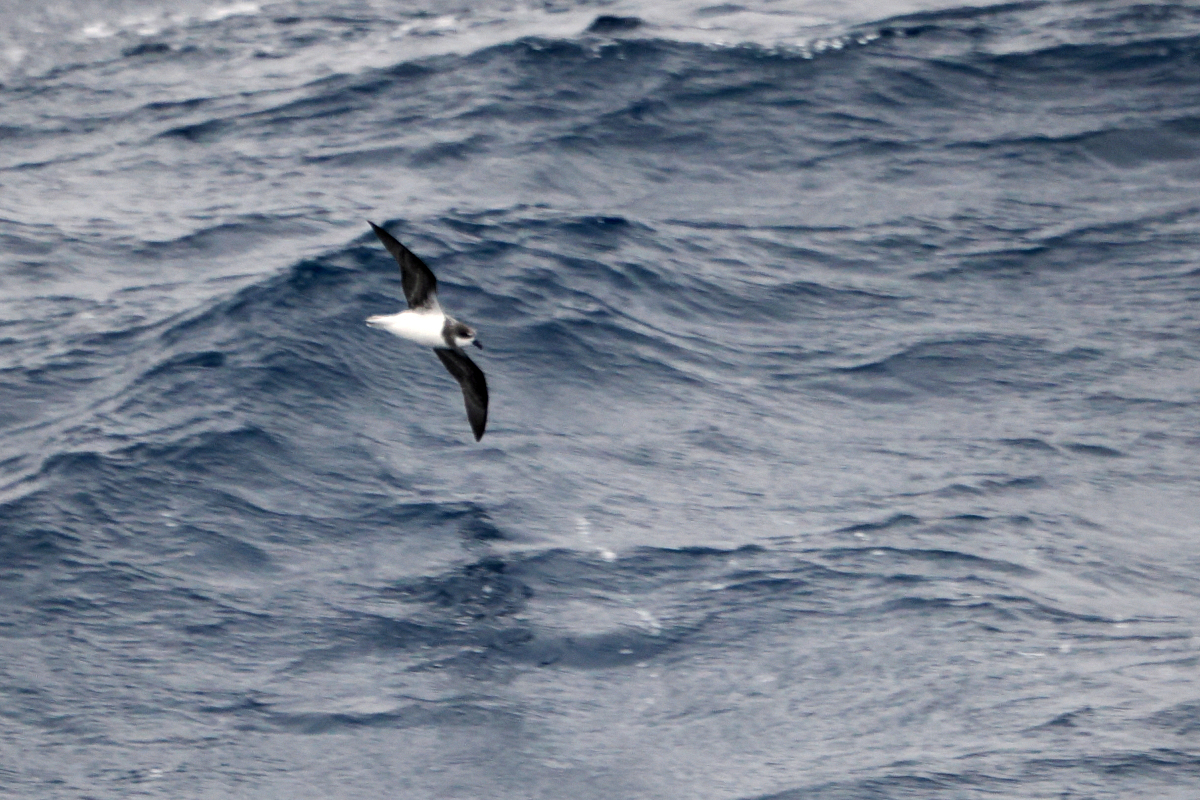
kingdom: Animalia
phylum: Chordata
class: Aves
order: Procellariiformes
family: Procellariidae
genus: Pterodroma
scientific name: Pterodroma mollis
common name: Soft-plumaged petrel
